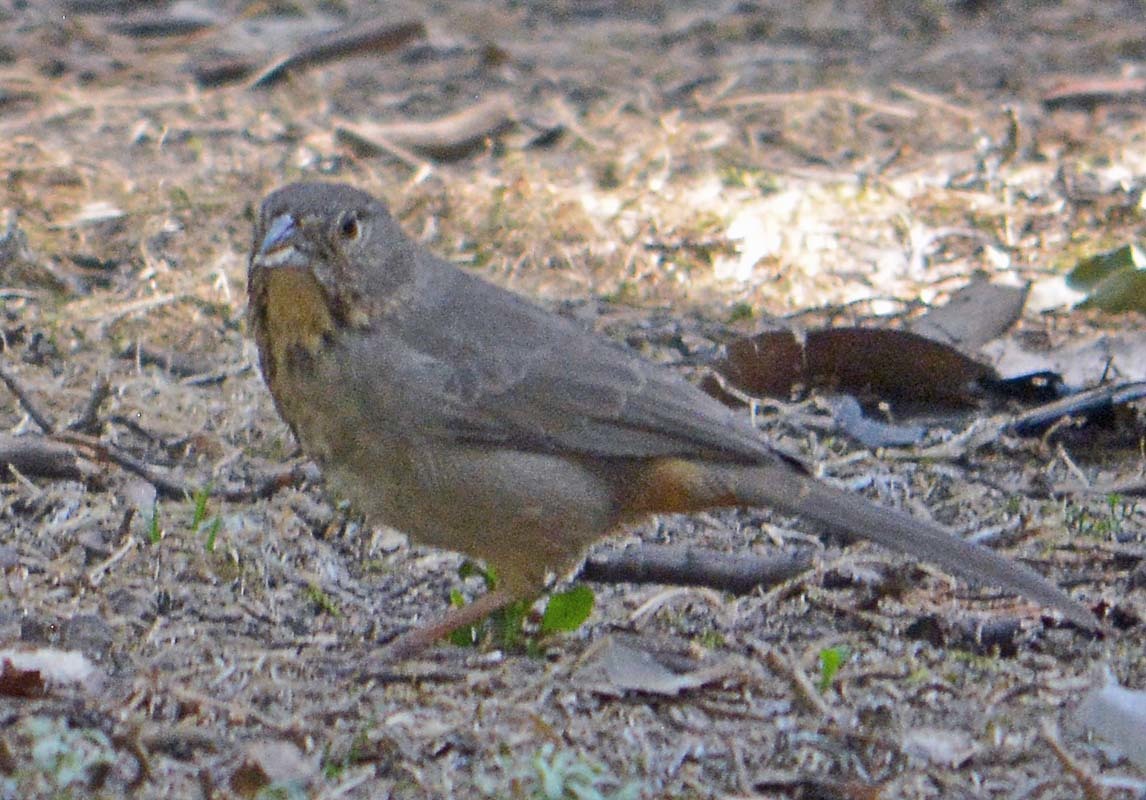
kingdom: Animalia
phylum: Chordata
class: Aves
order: Passeriformes
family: Passerellidae
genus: Melozone
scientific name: Melozone fusca
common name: Canyon towhee
